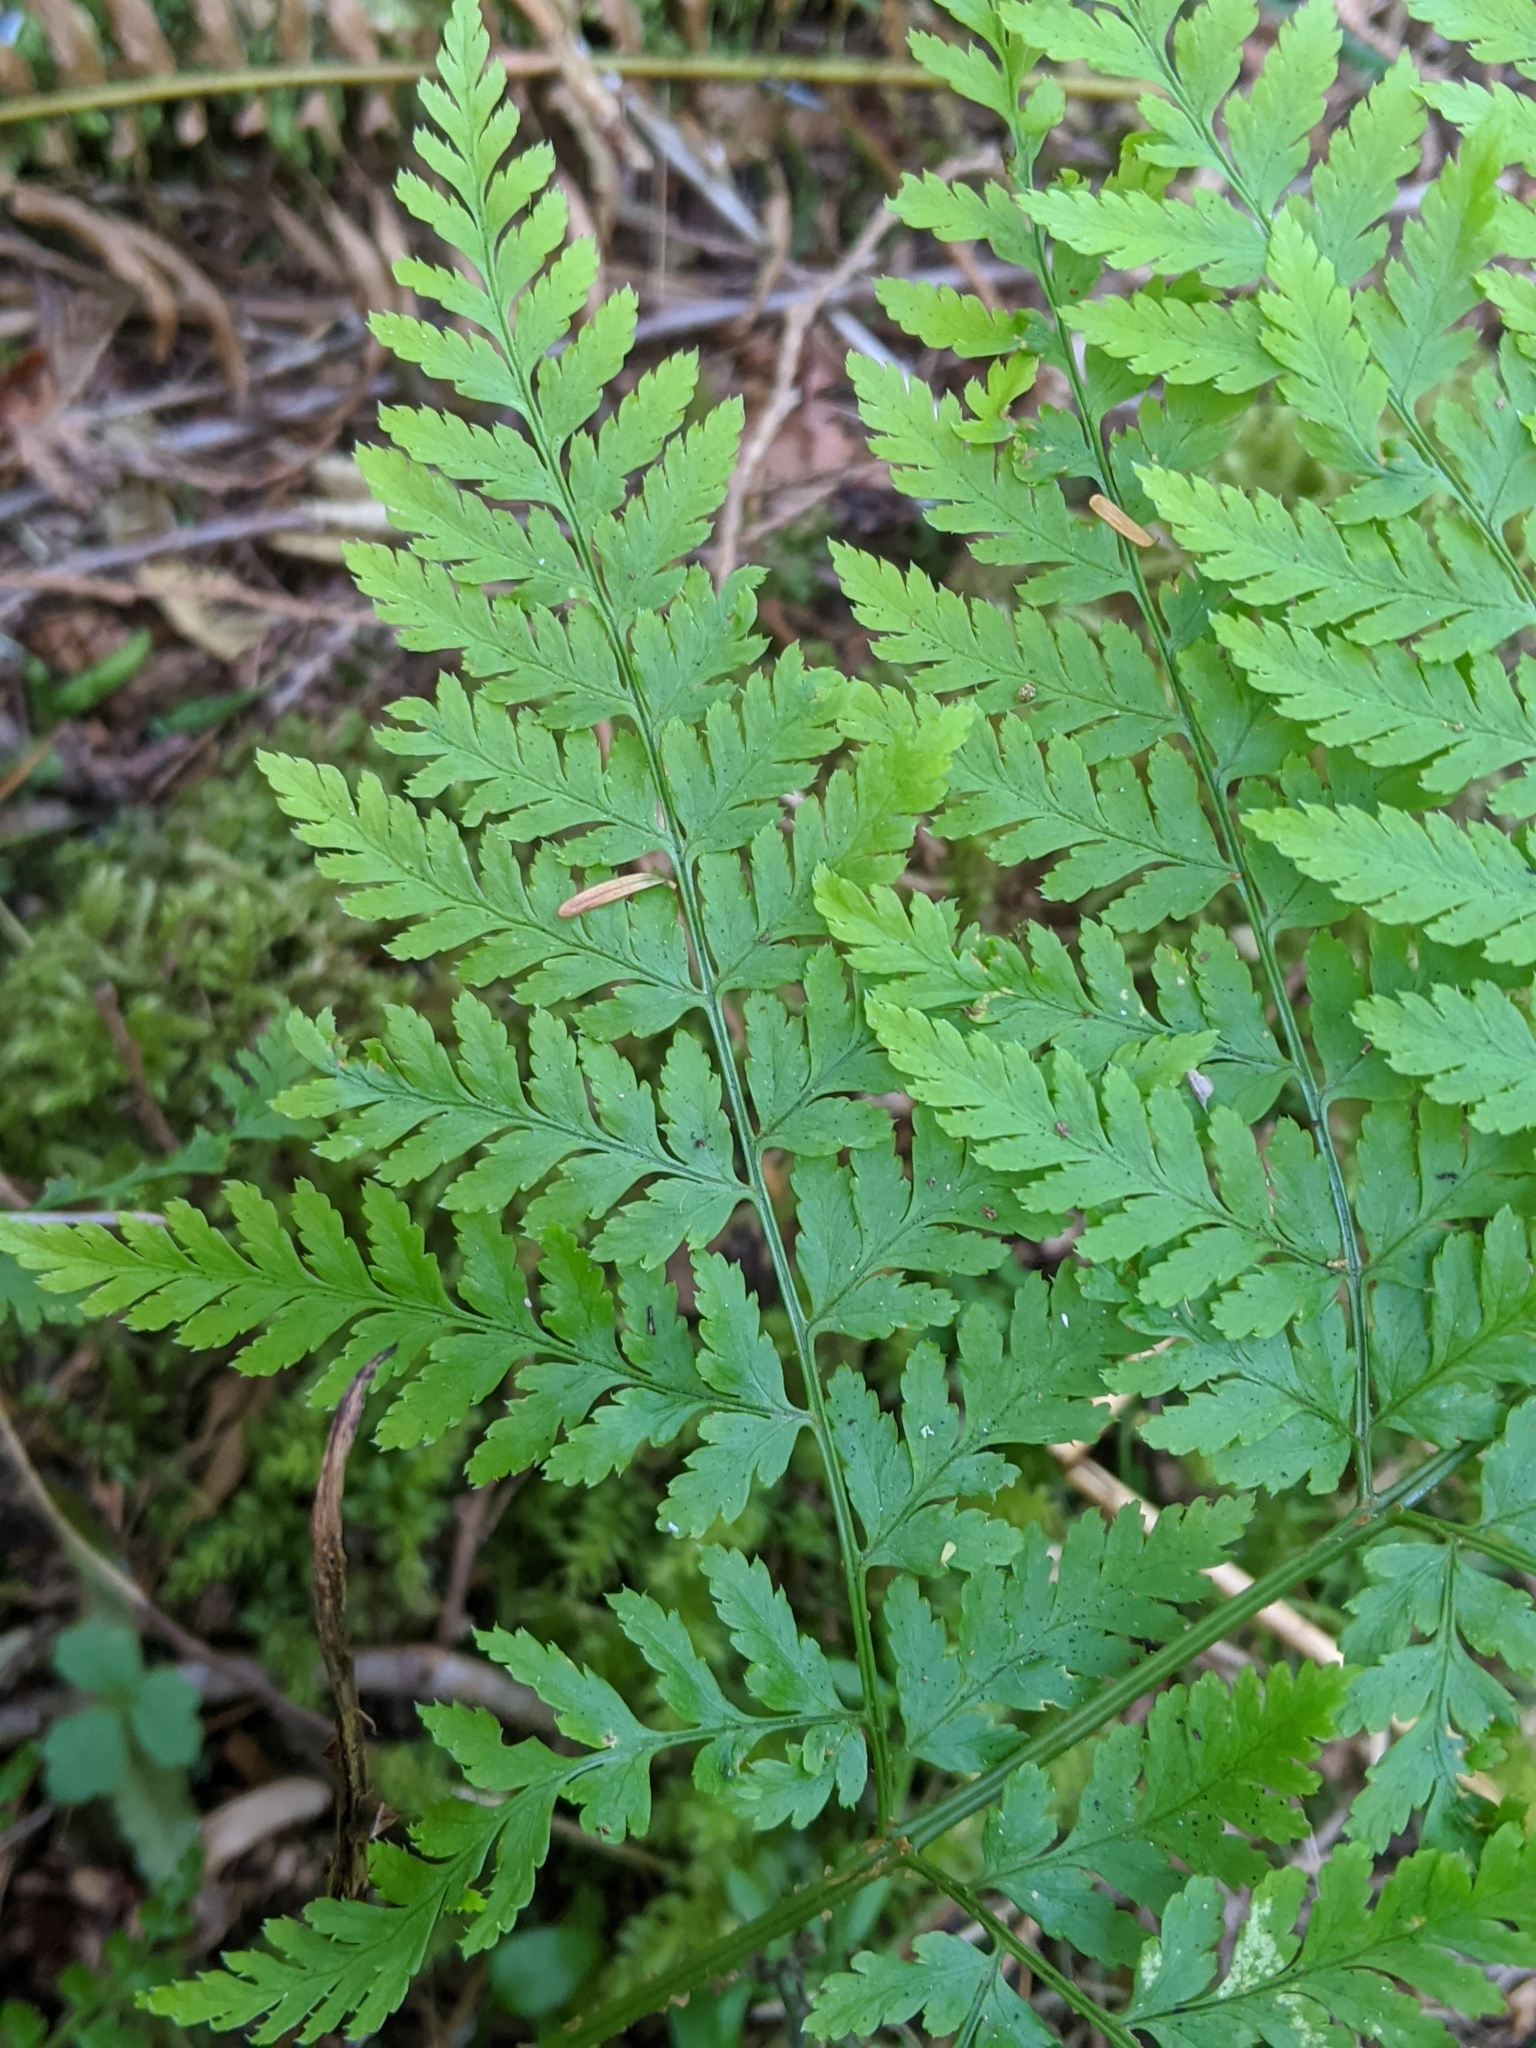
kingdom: Plantae
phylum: Tracheophyta
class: Polypodiopsida
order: Polypodiales
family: Dryopteridaceae
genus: Dryopteris
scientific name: Dryopteris expansa
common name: Northern buckler fern
